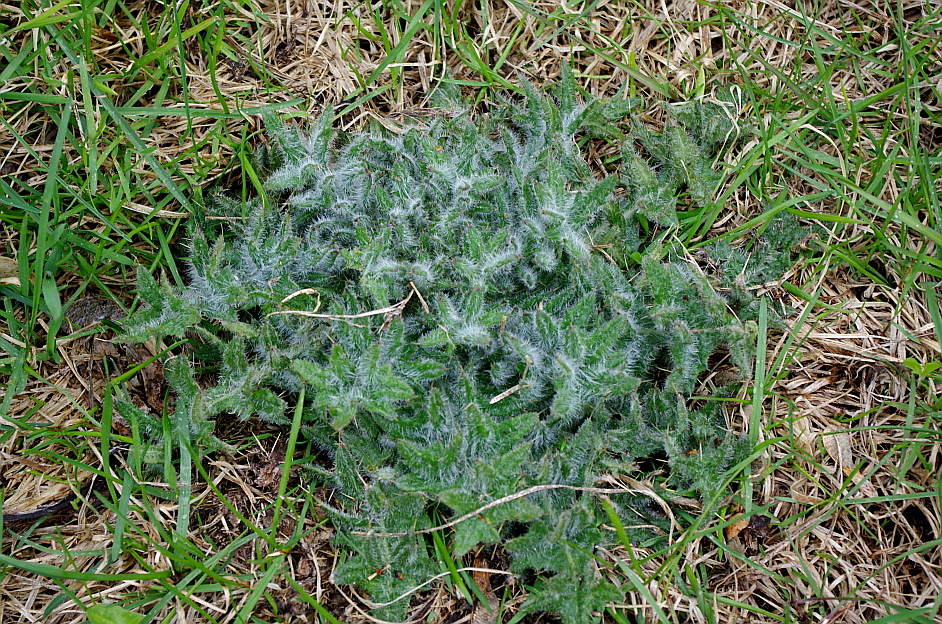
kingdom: Plantae
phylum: Tracheophyta
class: Magnoliopsida
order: Asterales
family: Asteraceae
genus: Cirsium
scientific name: Cirsium vulgare
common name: Bull thistle
